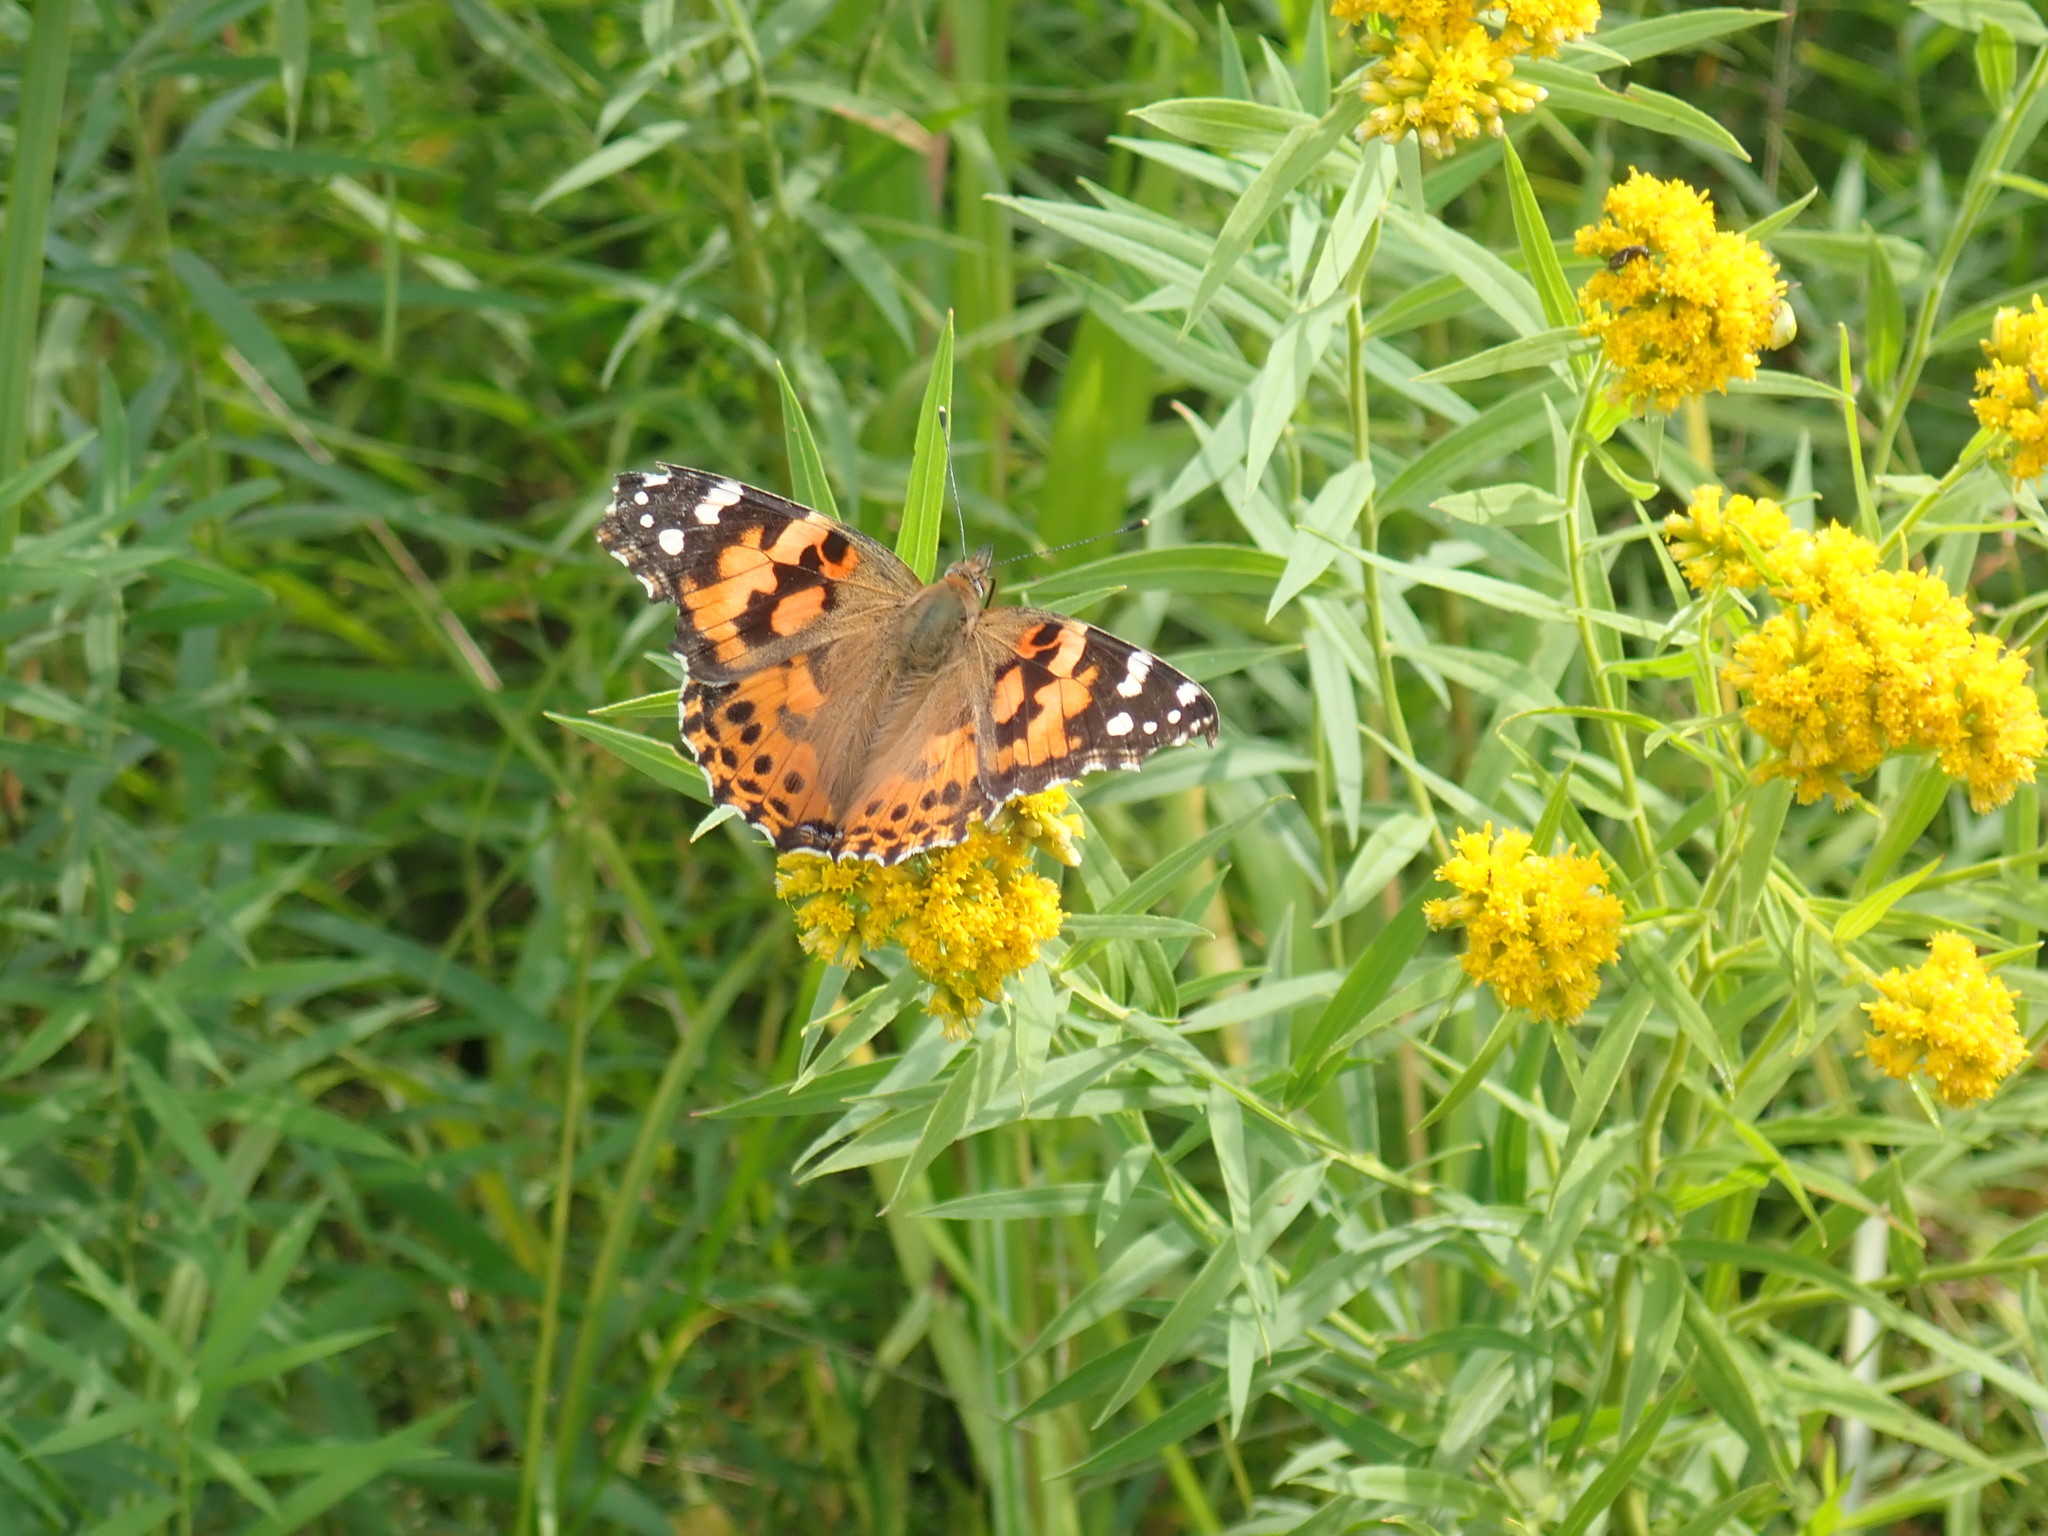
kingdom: Animalia
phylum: Arthropoda
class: Insecta
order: Lepidoptera
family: Nymphalidae
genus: Vanessa
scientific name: Vanessa cardui
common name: Painted lady
